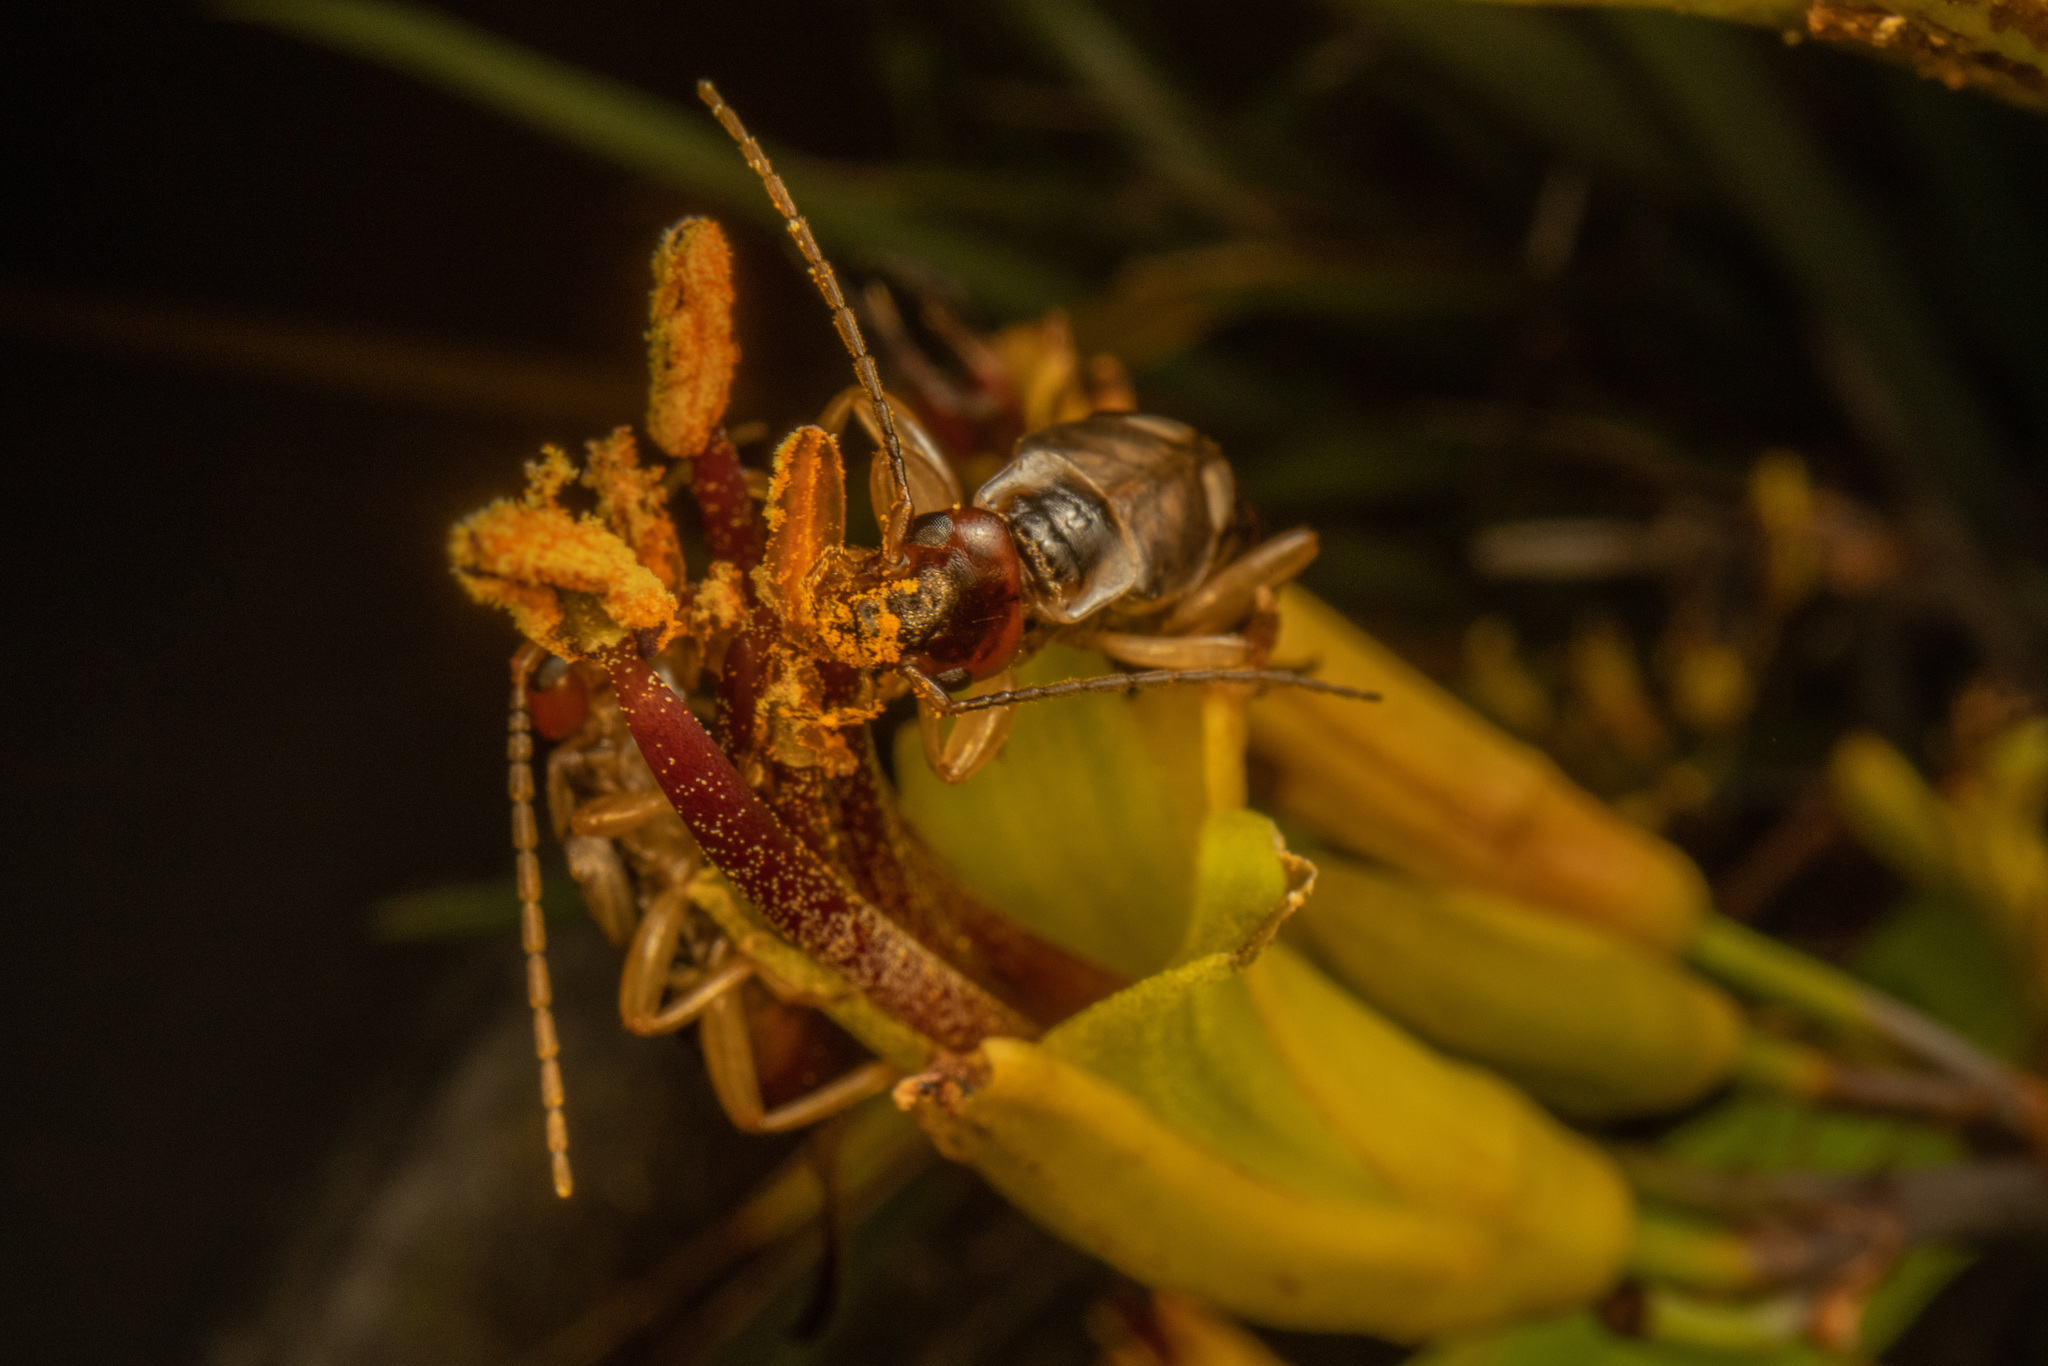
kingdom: Animalia
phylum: Arthropoda
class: Insecta
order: Dermaptera
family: Forficulidae
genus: Forficula
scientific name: Forficula
